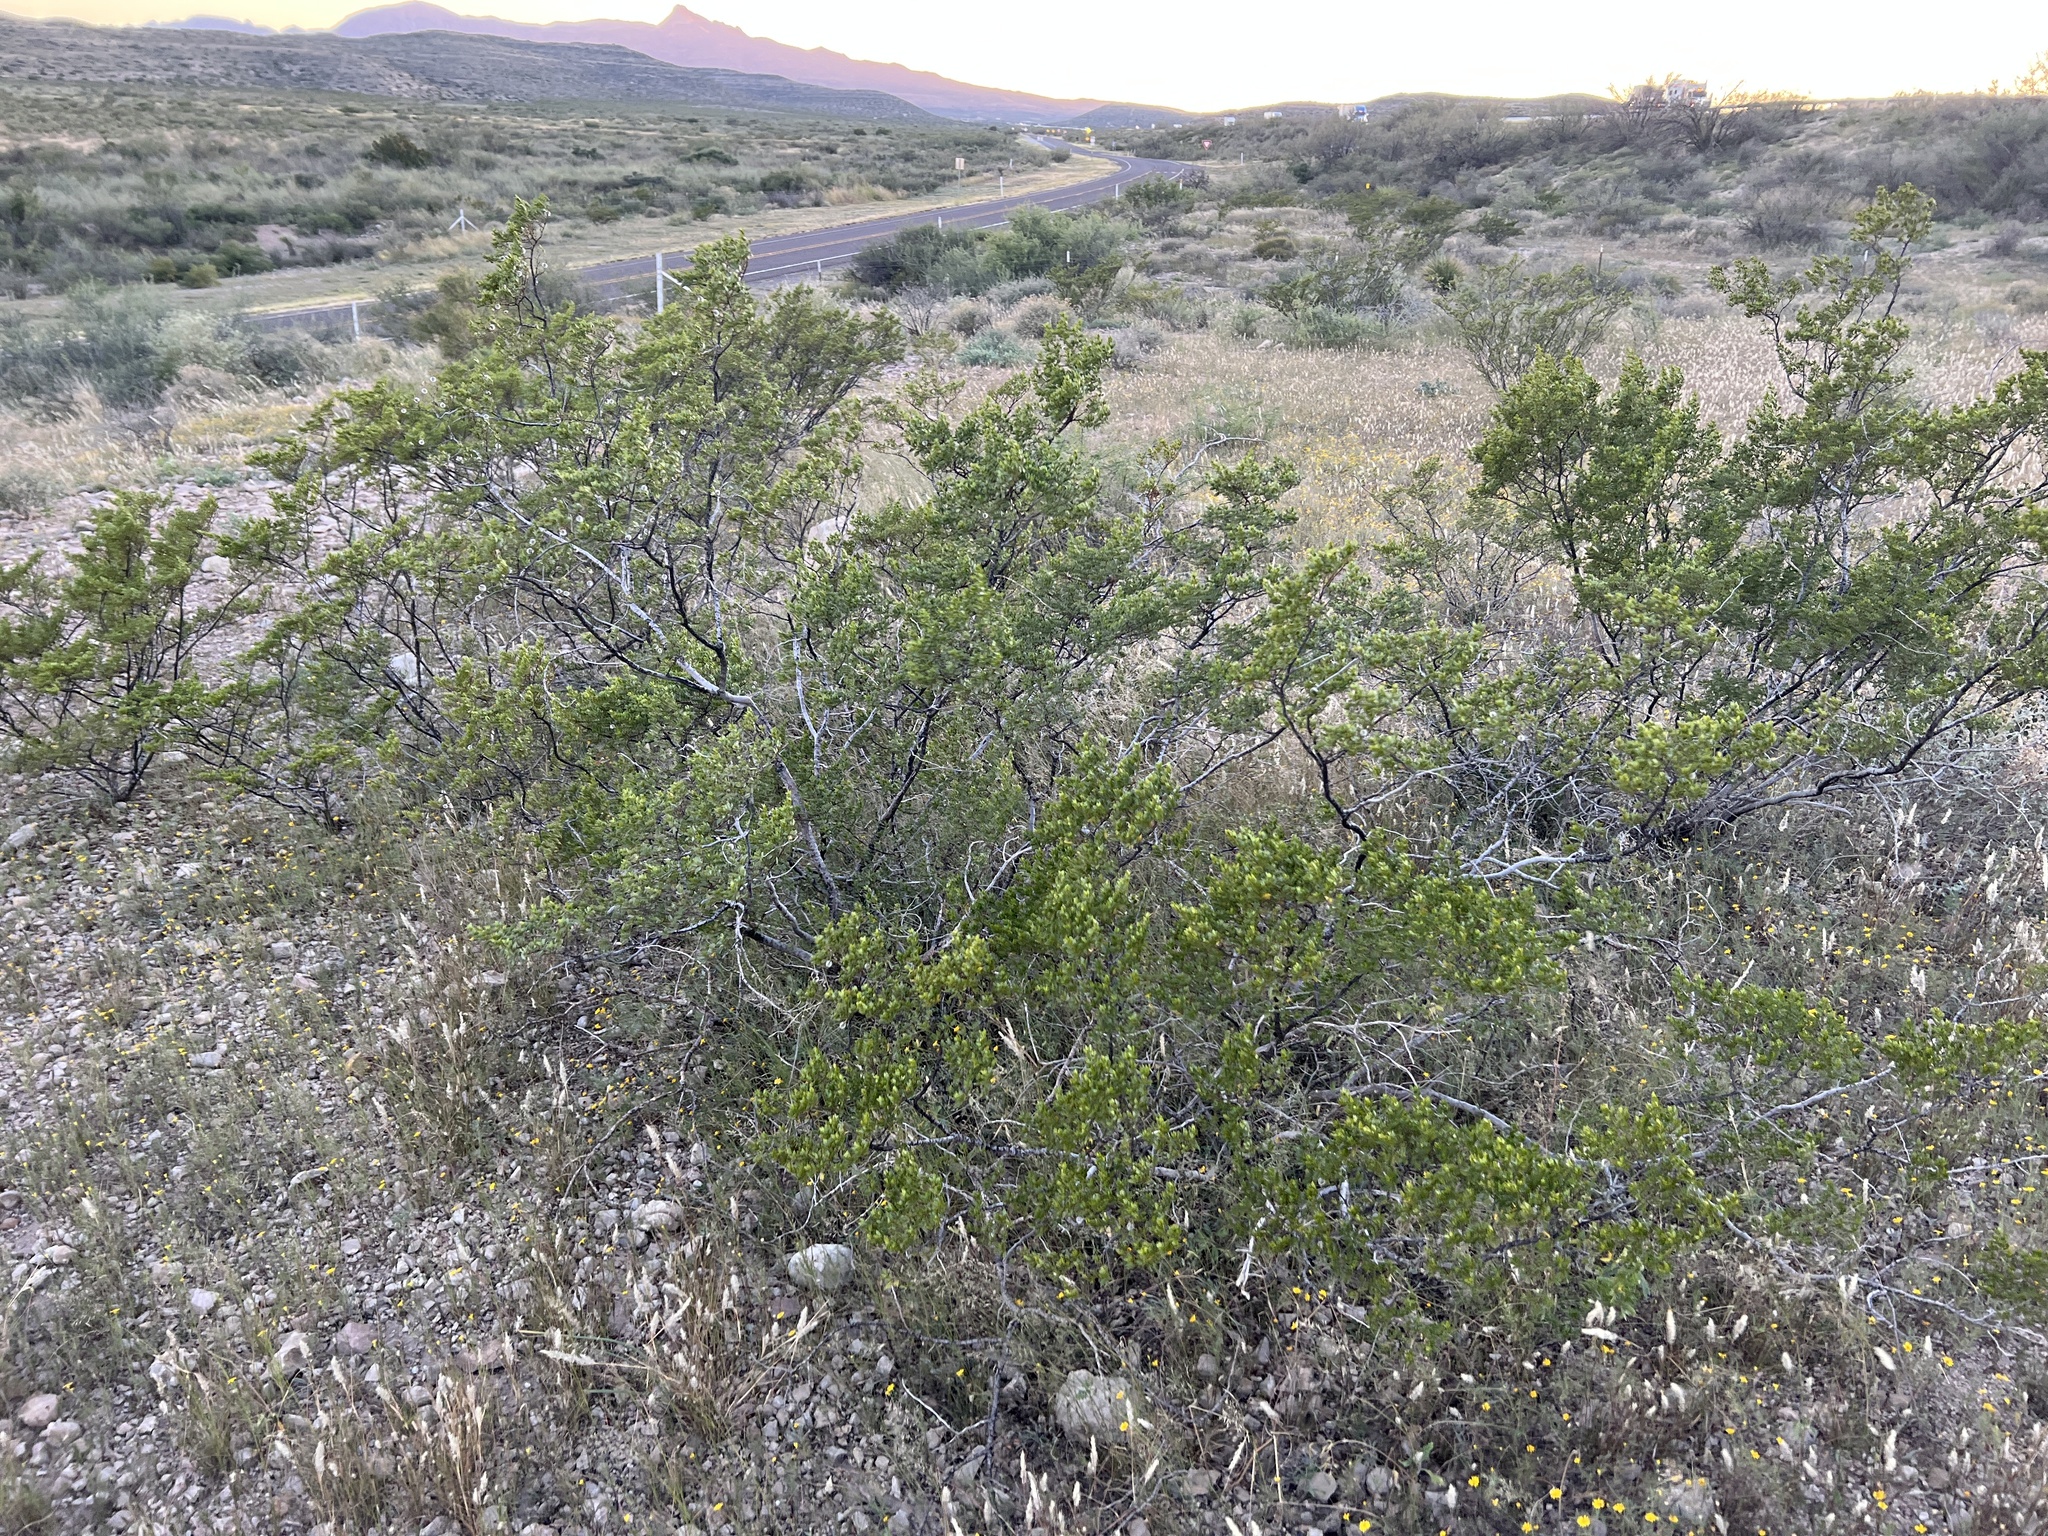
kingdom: Plantae
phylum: Tracheophyta
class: Magnoliopsida
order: Zygophyllales
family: Zygophyllaceae
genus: Larrea
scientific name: Larrea tridentata
